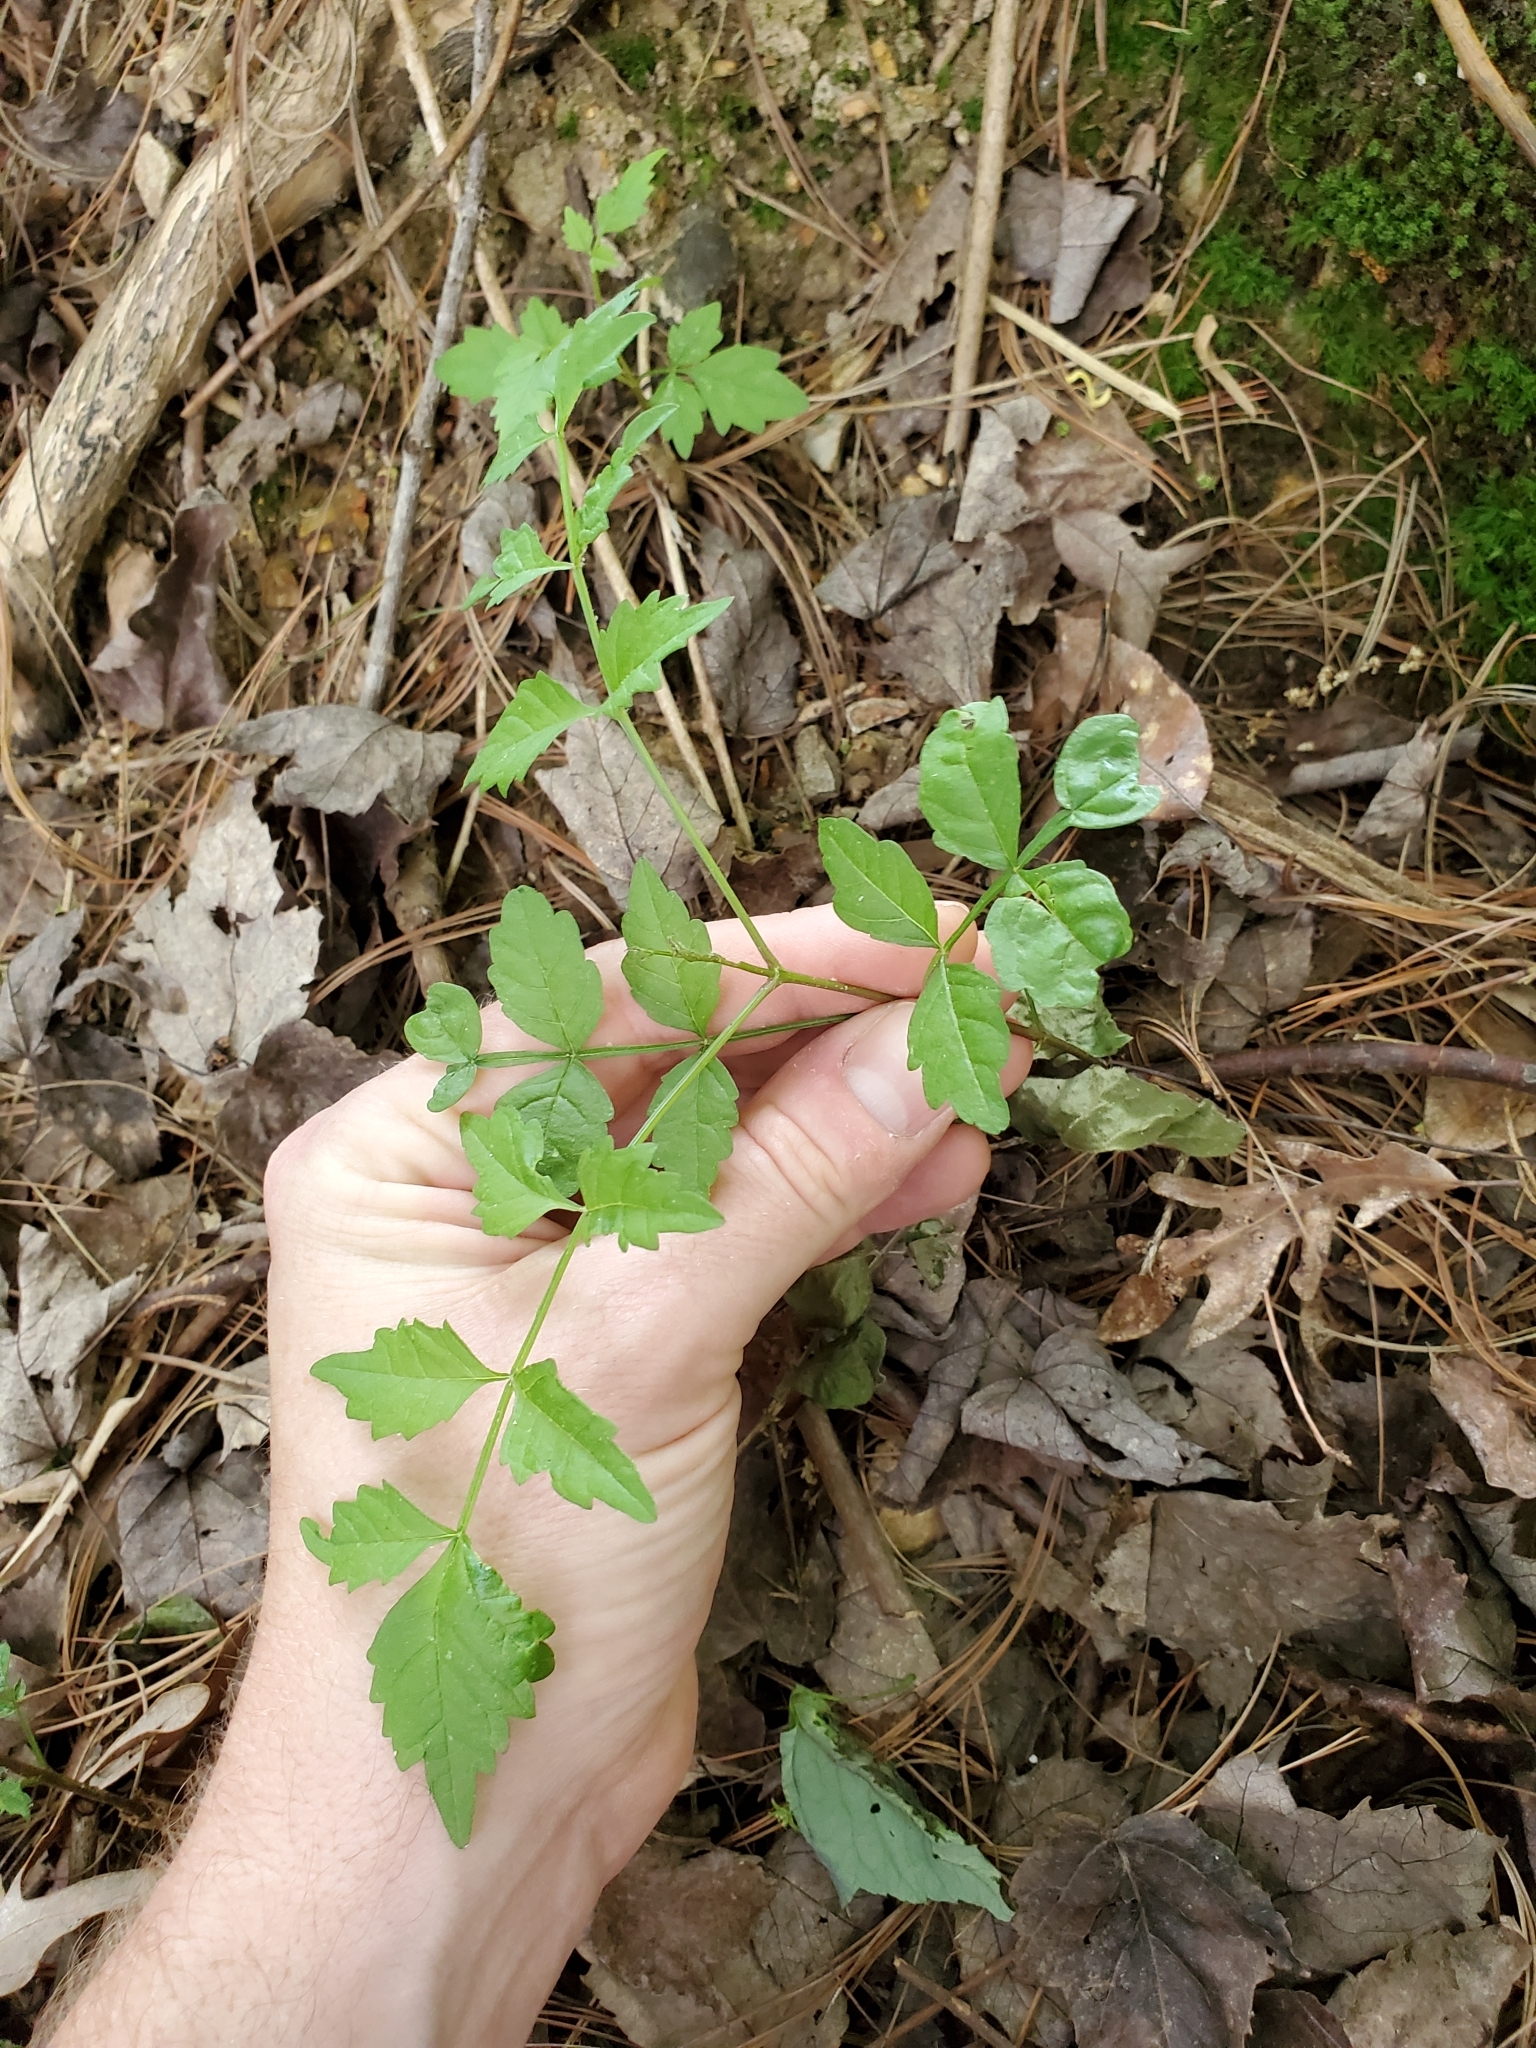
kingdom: Plantae
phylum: Tracheophyta
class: Magnoliopsida
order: Lamiales
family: Bignoniaceae
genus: Campsis
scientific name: Campsis radicans
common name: Trumpet-creeper
